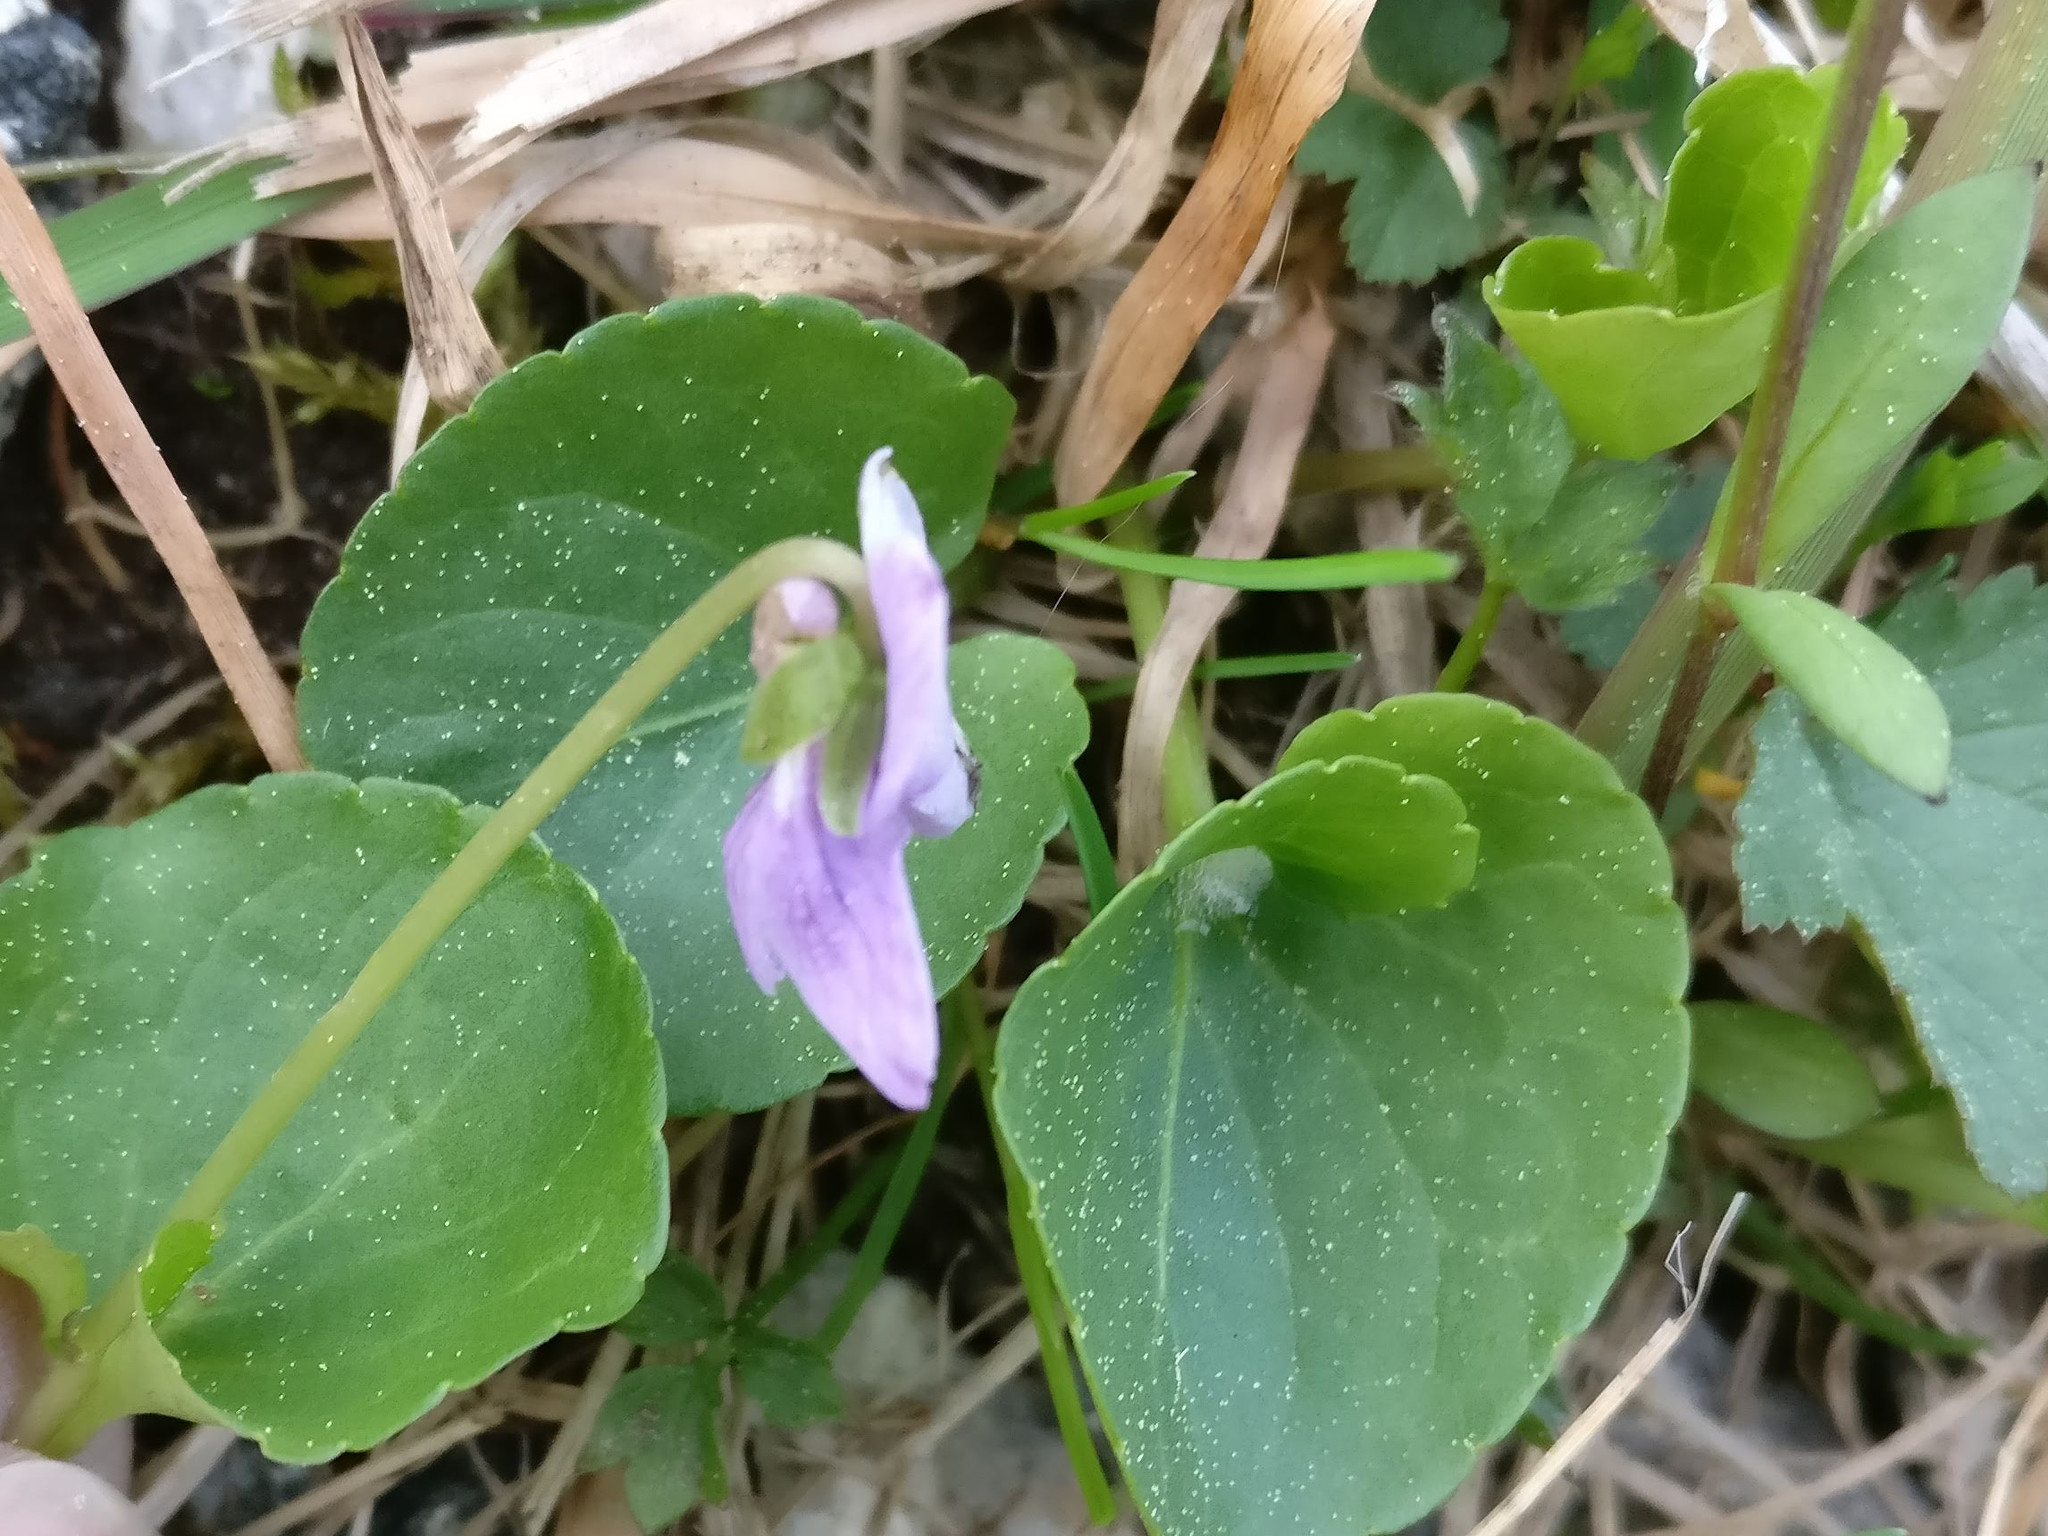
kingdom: Plantae
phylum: Tracheophyta
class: Magnoliopsida
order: Malpighiales
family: Violaceae
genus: Viola
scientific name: Viola palustris
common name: Marsh violet
